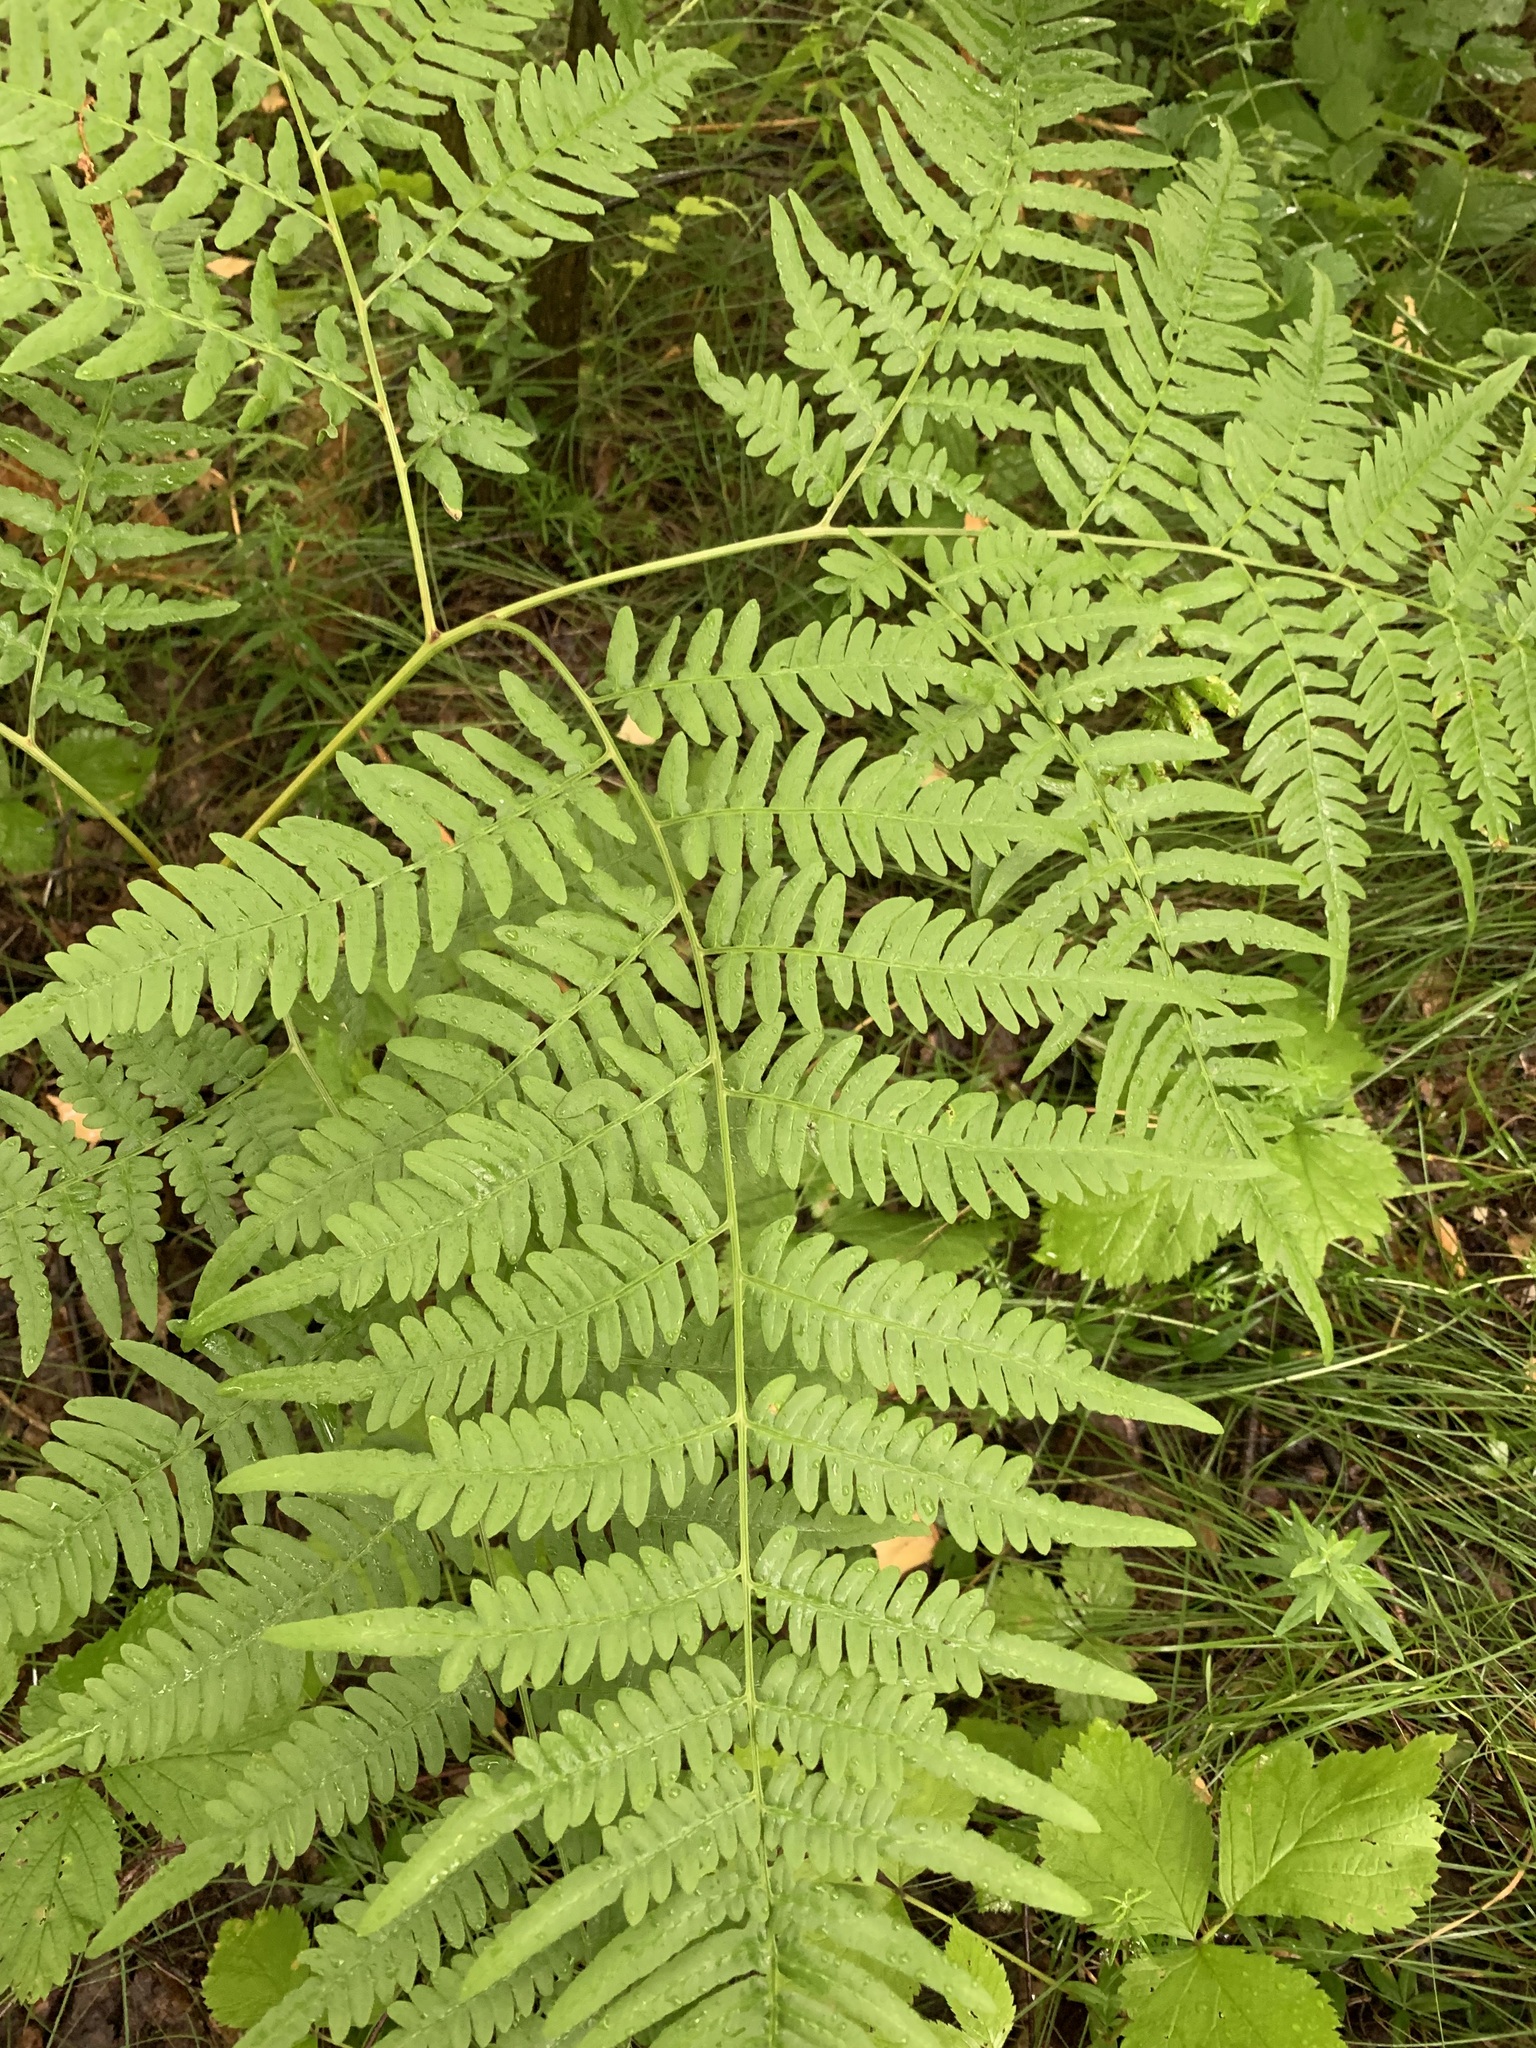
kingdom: Plantae
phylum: Tracheophyta
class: Polypodiopsida
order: Polypodiales
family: Dennstaedtiaceae
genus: Pteridium
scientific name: Pteridium aquilinum
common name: Bracken
